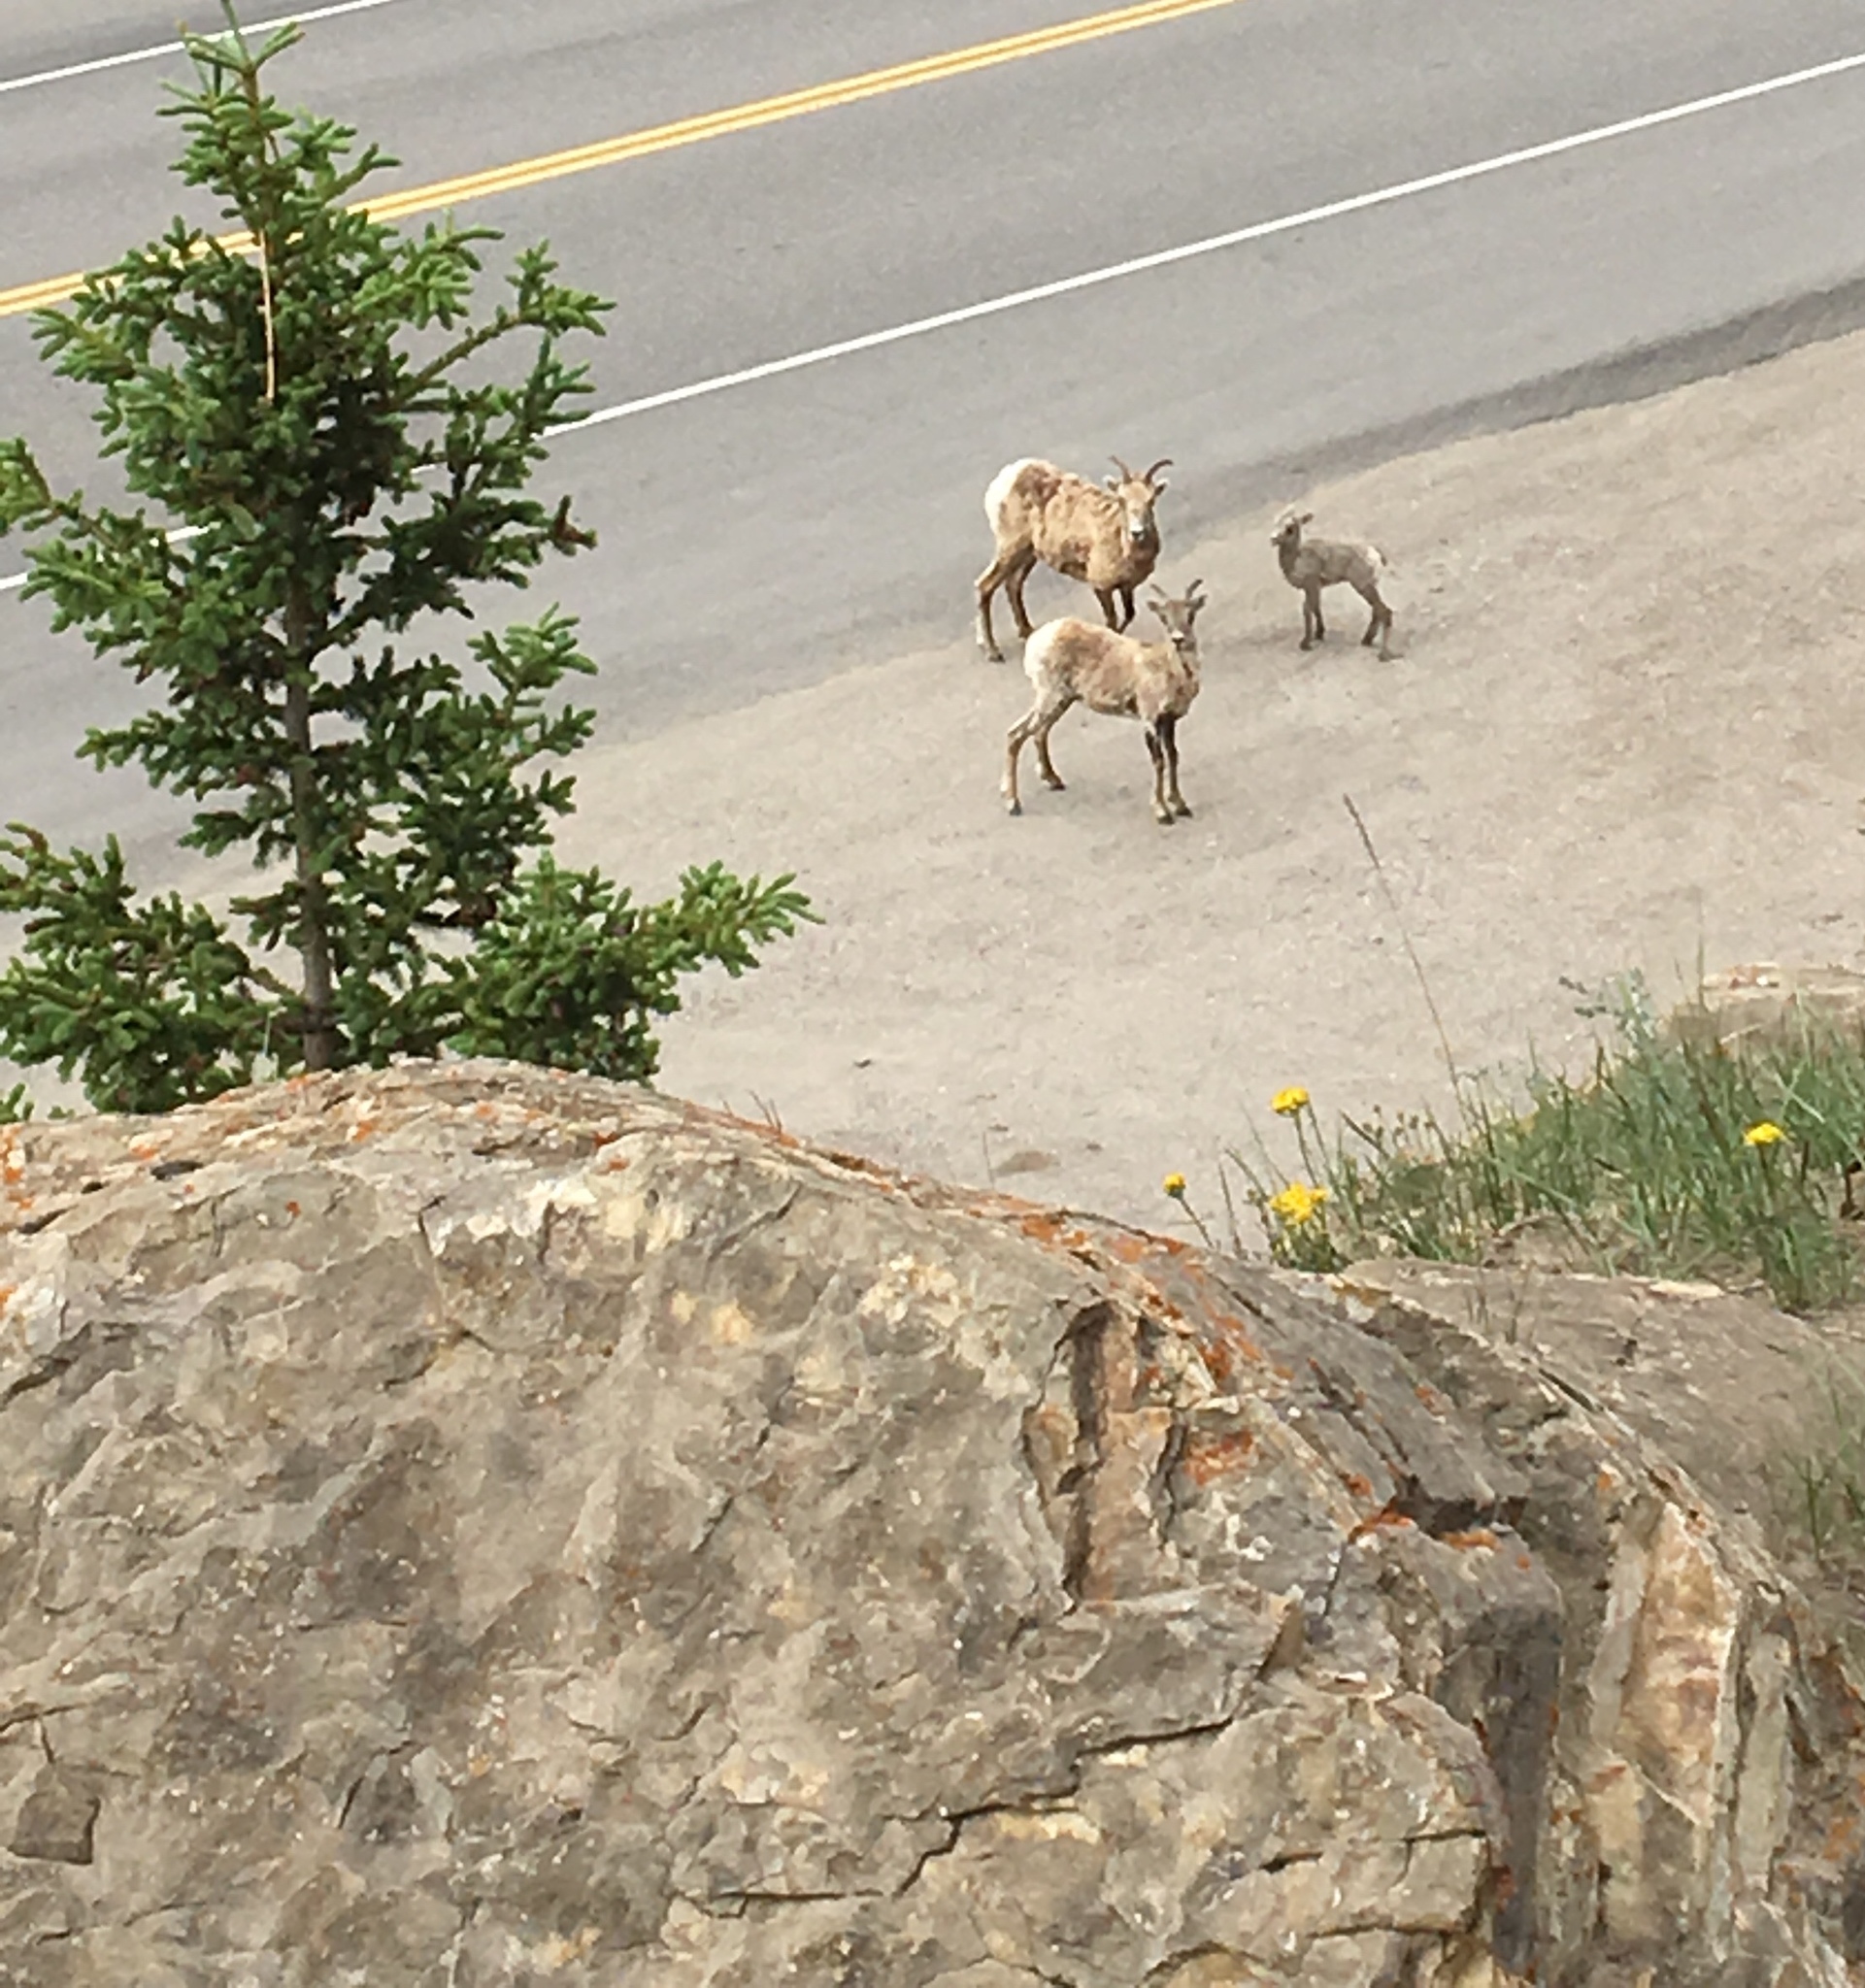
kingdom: Animalia
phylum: Chordata
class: Mammalia
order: Artiodactyla
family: Bovidae
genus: Ovis
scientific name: Ovis canadensis
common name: Bighorn sheep
